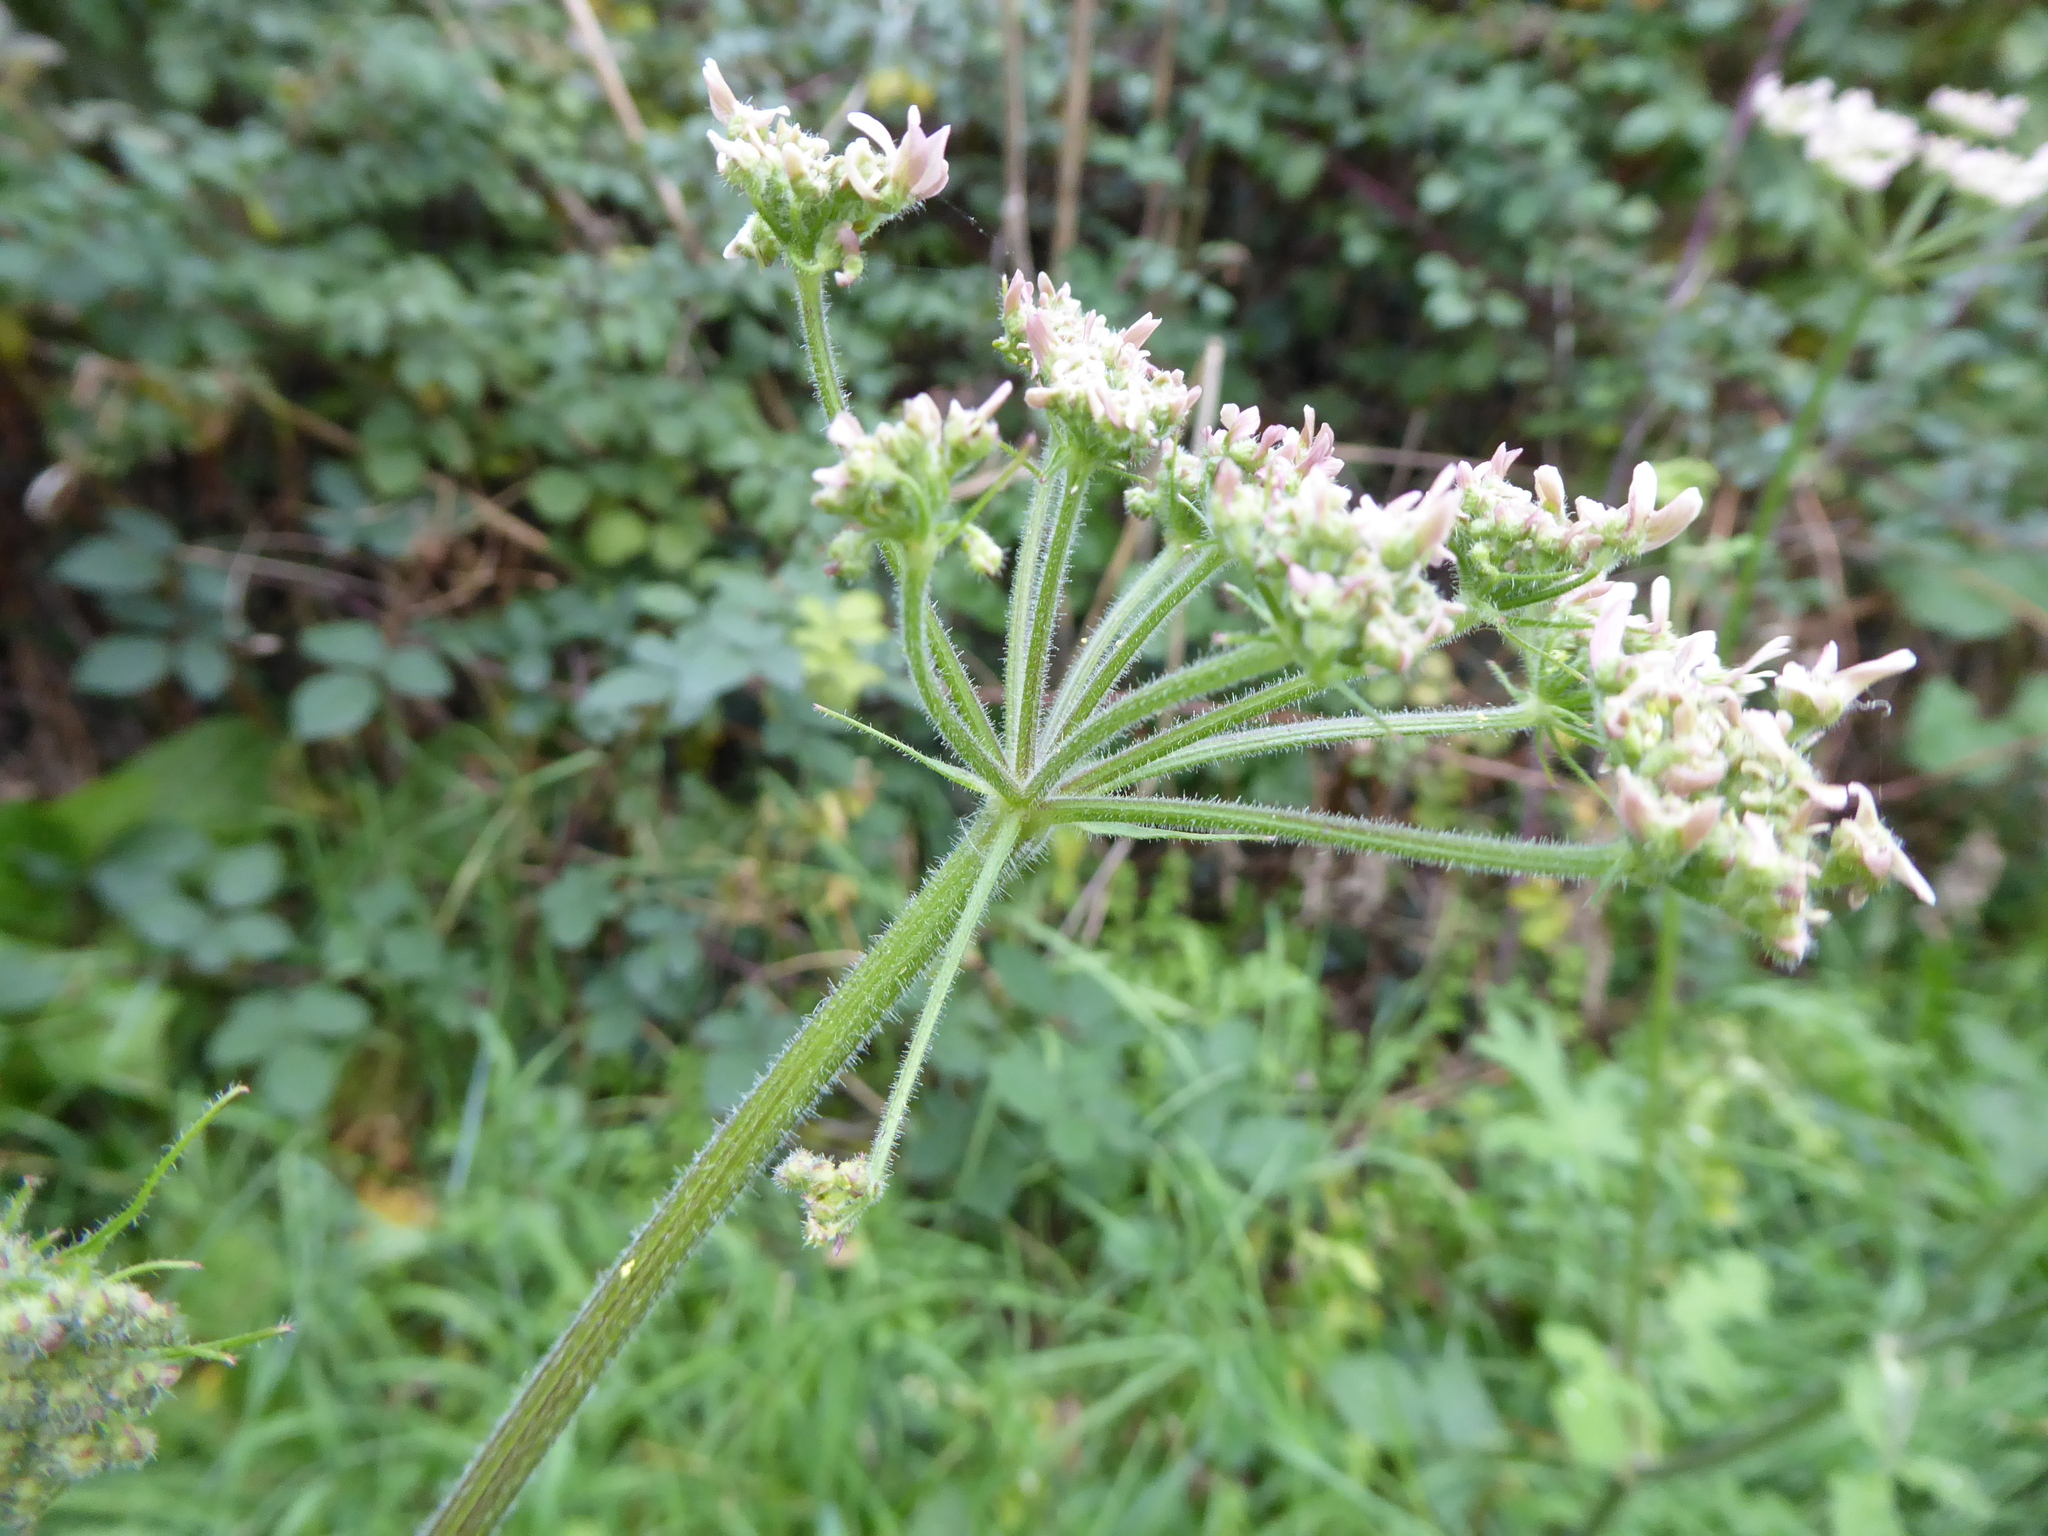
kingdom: Plantae
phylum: Tracheophyta
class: Magnoliopsida
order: Apiales
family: Apiaceae
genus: Heracleum
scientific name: Heracleum sphondylium
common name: Hogweed
